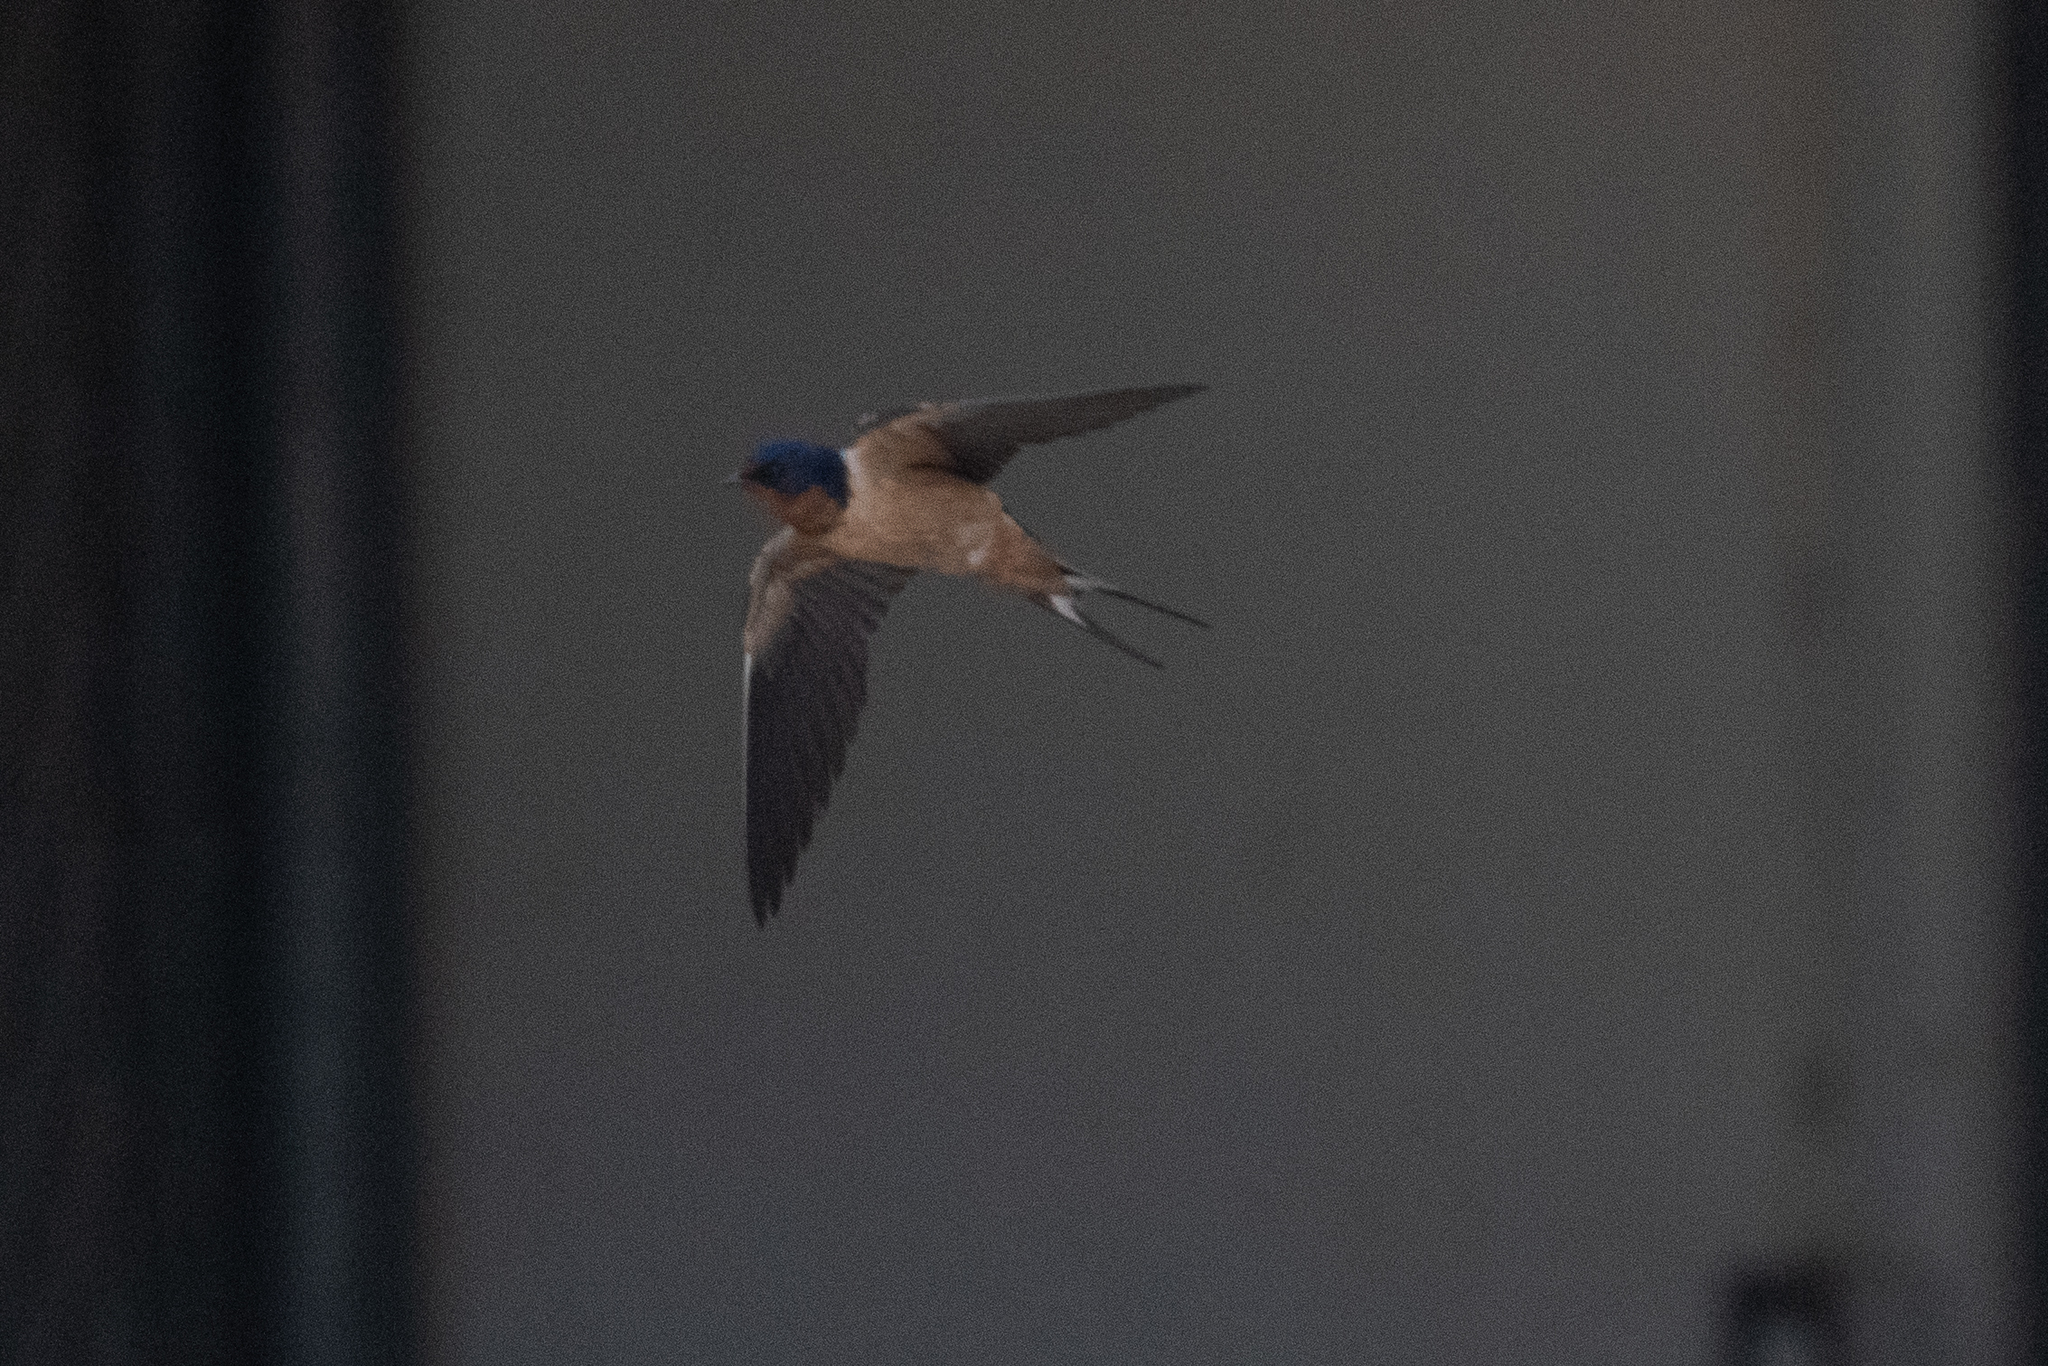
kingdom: Animalia
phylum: Chordata
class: Aves
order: Passeriformes
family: Hirundinidae
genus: Hirundo
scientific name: Hirundo rustica
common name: Barn swallow
